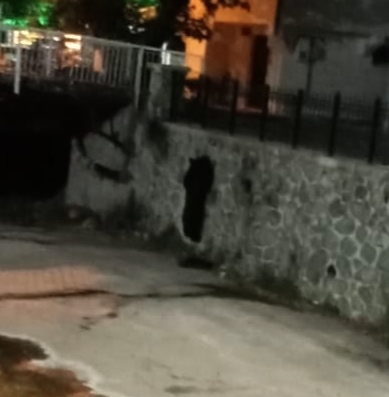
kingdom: Animalia
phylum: Chordata
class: Mammalia
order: Carnivora
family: Ursidae
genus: Ursus
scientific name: Ursus arctos
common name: Brown bear
